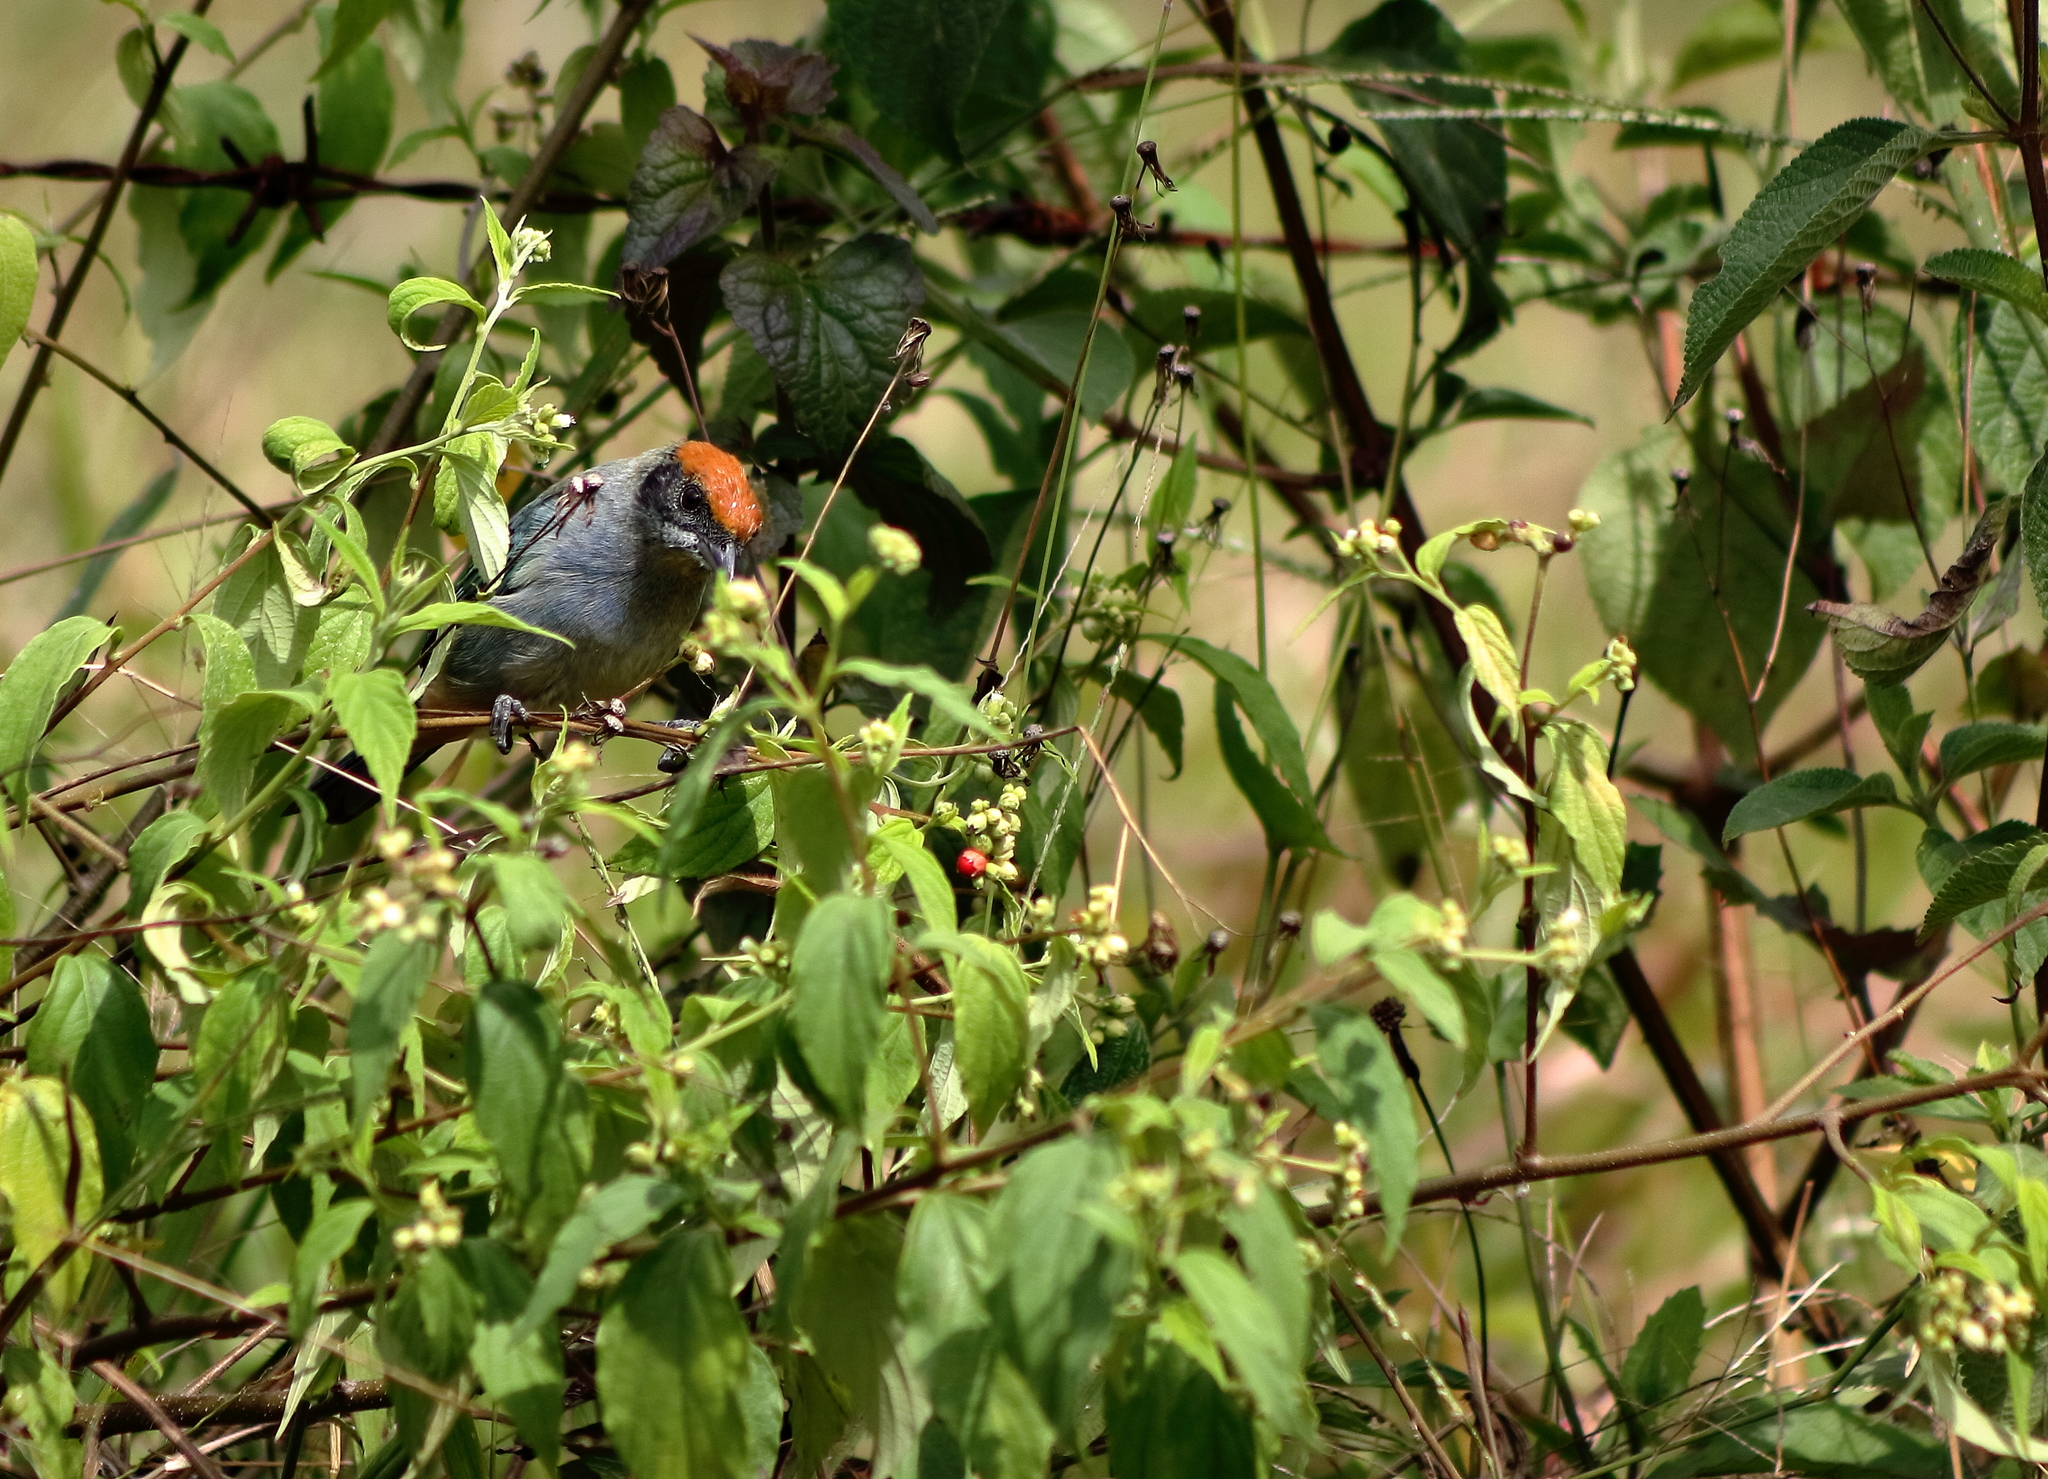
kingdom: Animalia
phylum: Chordata
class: Aves
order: Passeriformes
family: Thraupidae
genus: Stilpnia
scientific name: Stilpnia vitriolina
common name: Scrub tanager
